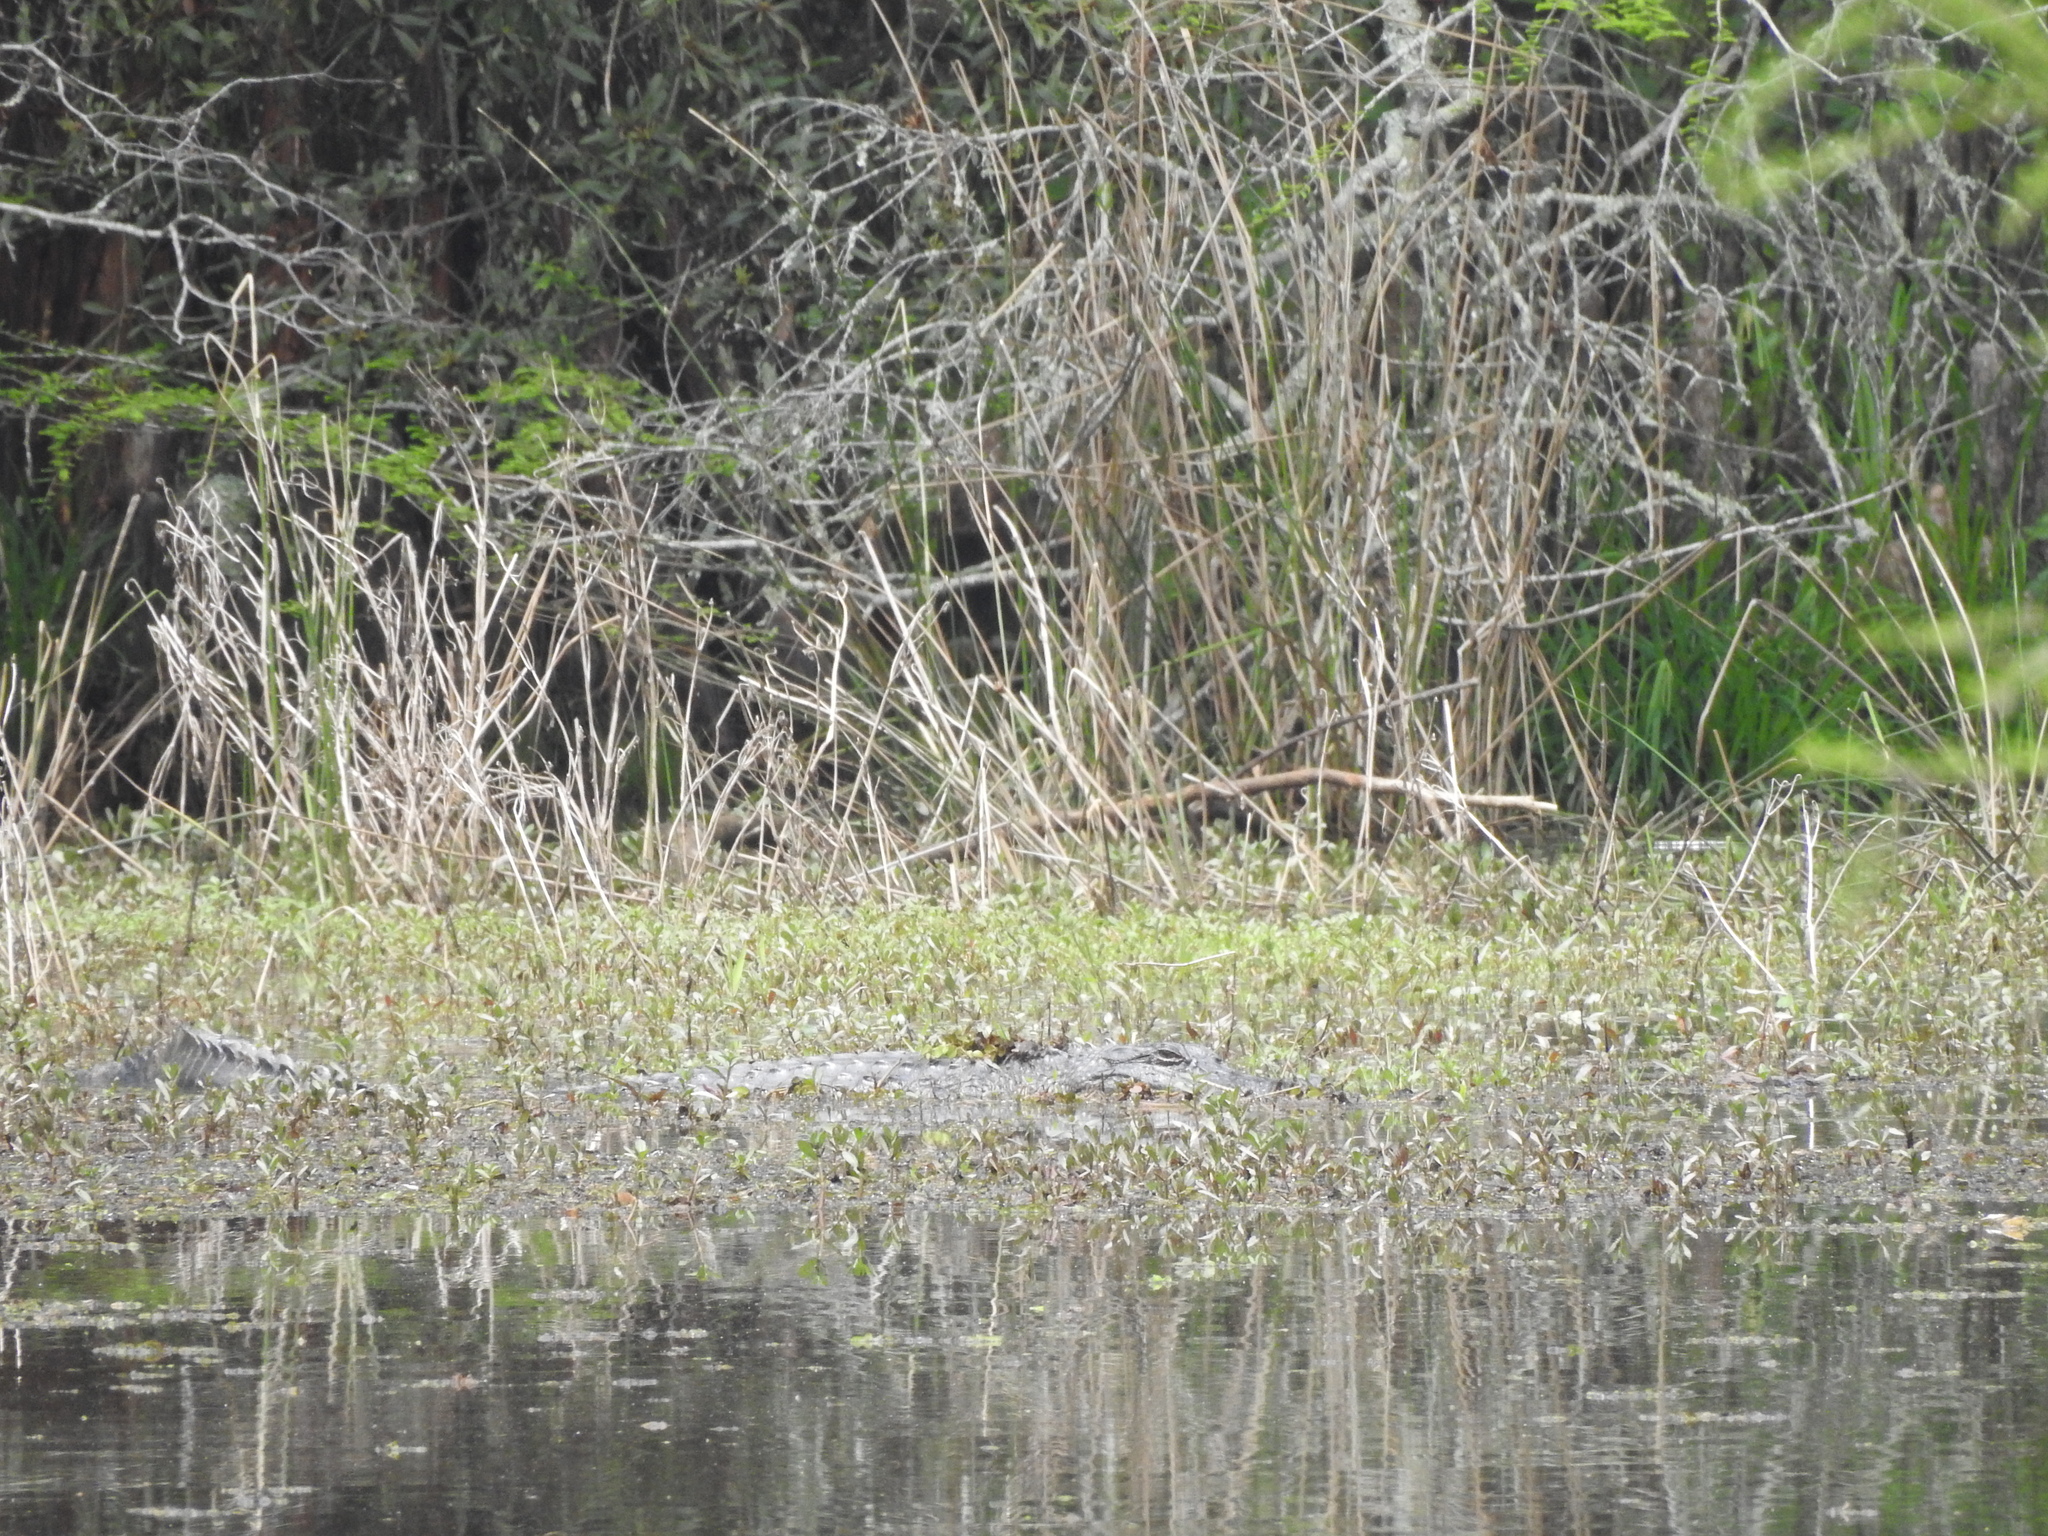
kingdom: Animalia
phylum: Chordata
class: Crocodylia
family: Alligatoridae
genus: Alligator
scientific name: Alligator mississippiensis
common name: American alligator
